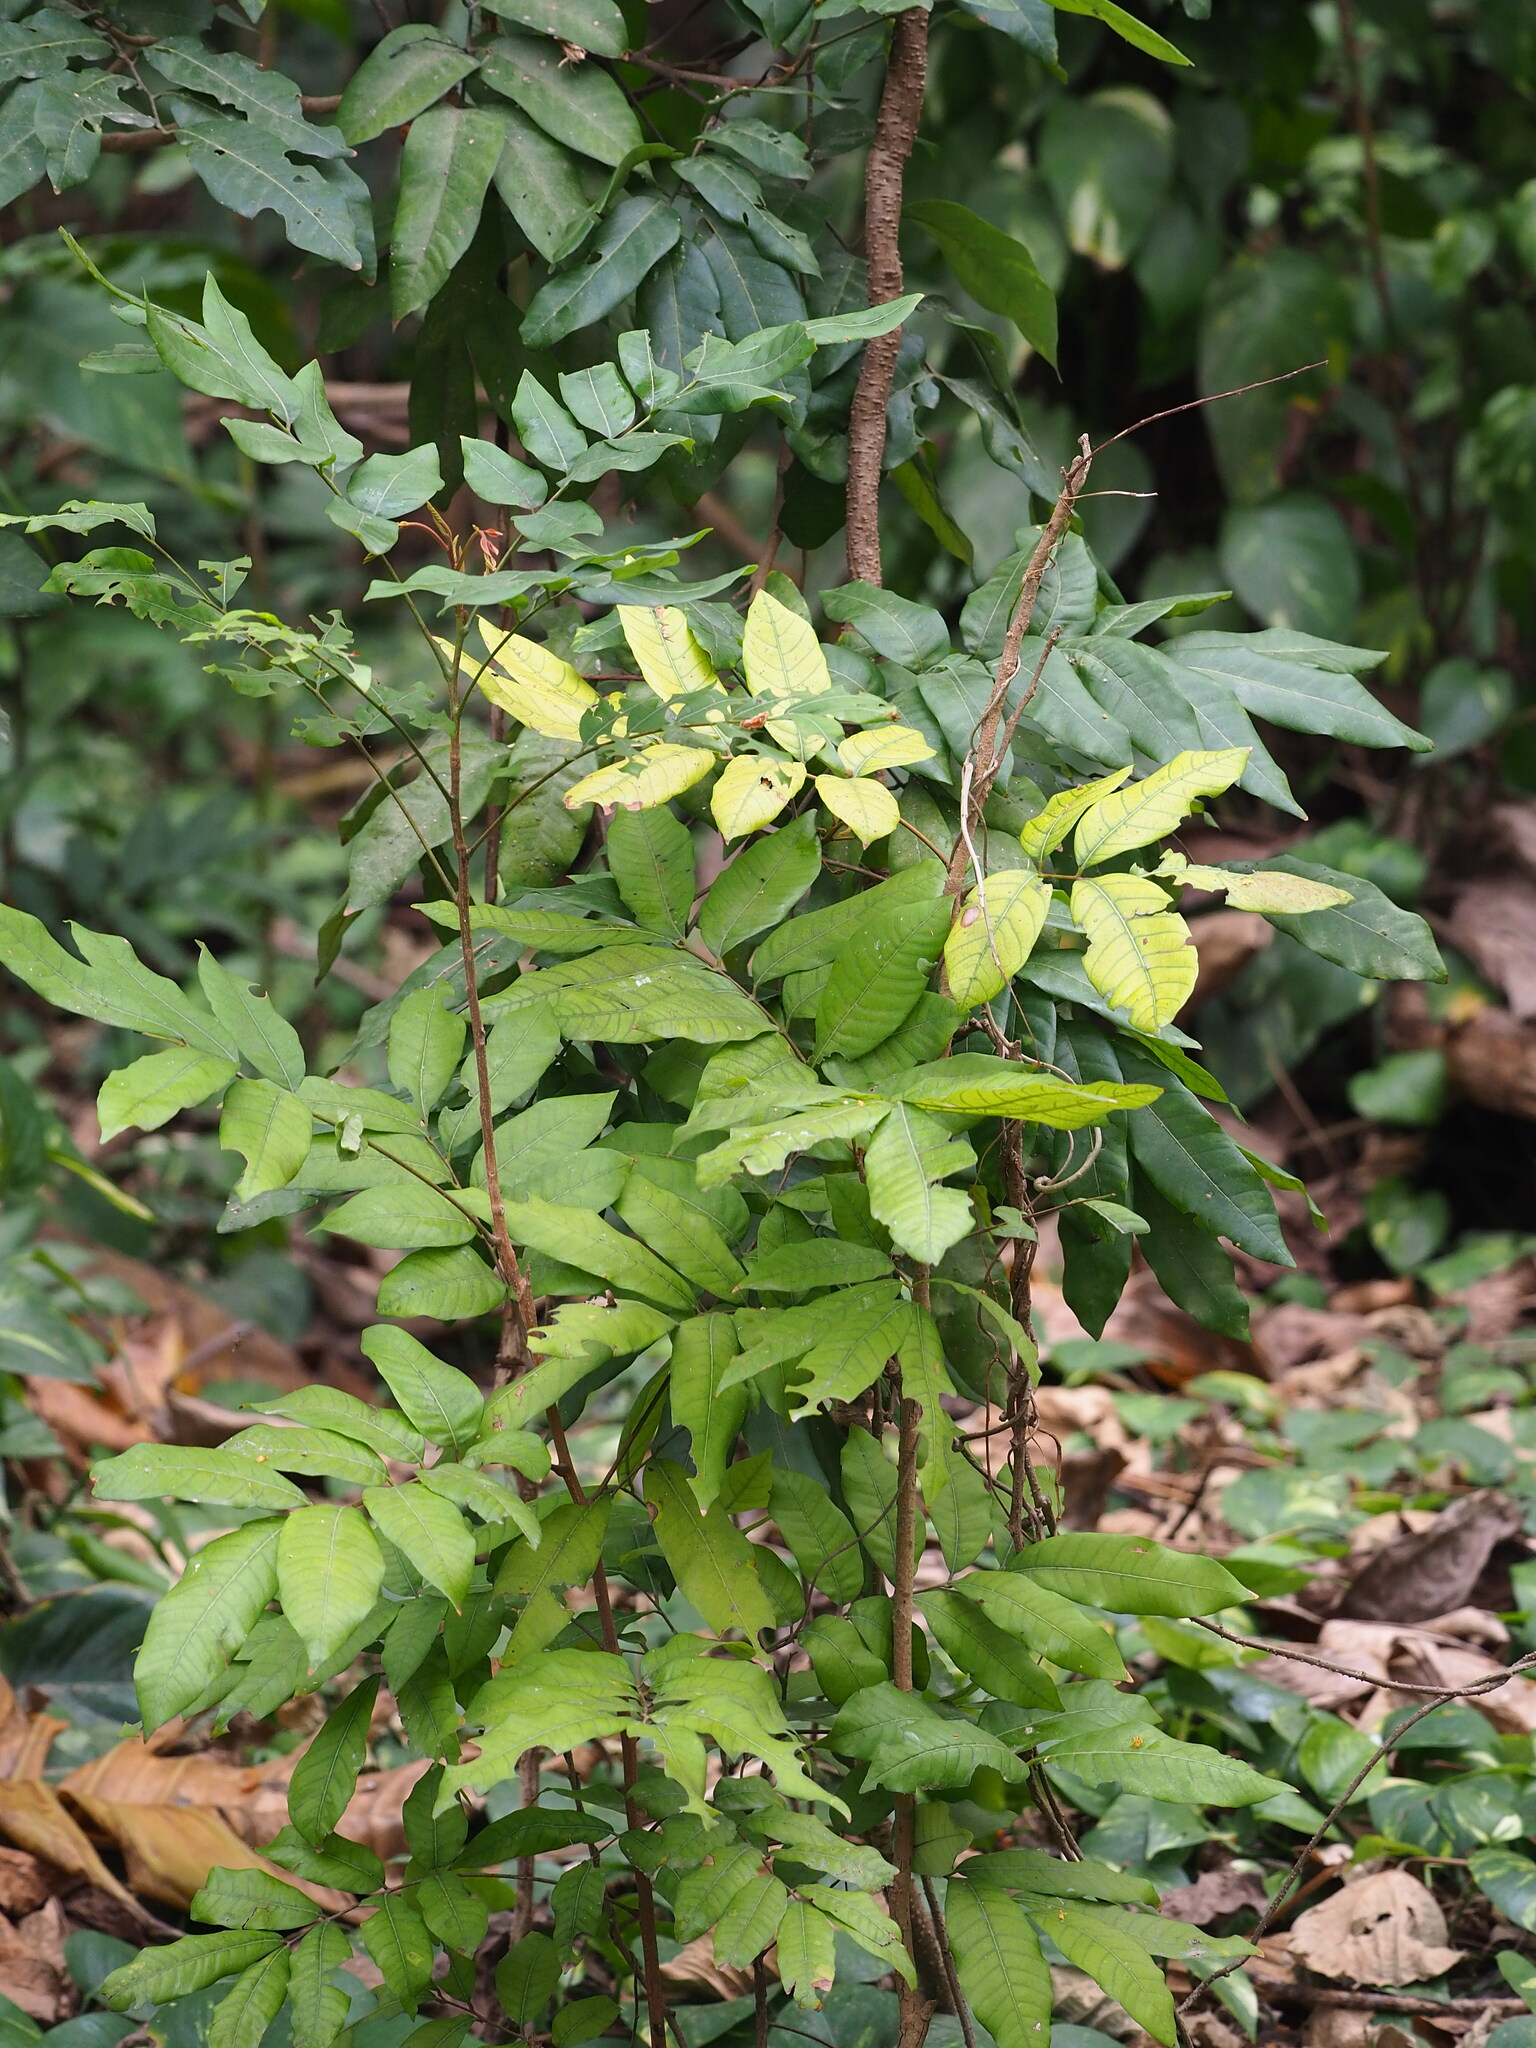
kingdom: Plantae
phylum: Tracheophyta
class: Magnoliopsida
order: Sapindales
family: Sapindaceae
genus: Dimocarpus
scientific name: Dimocarpus longan
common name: Longan
